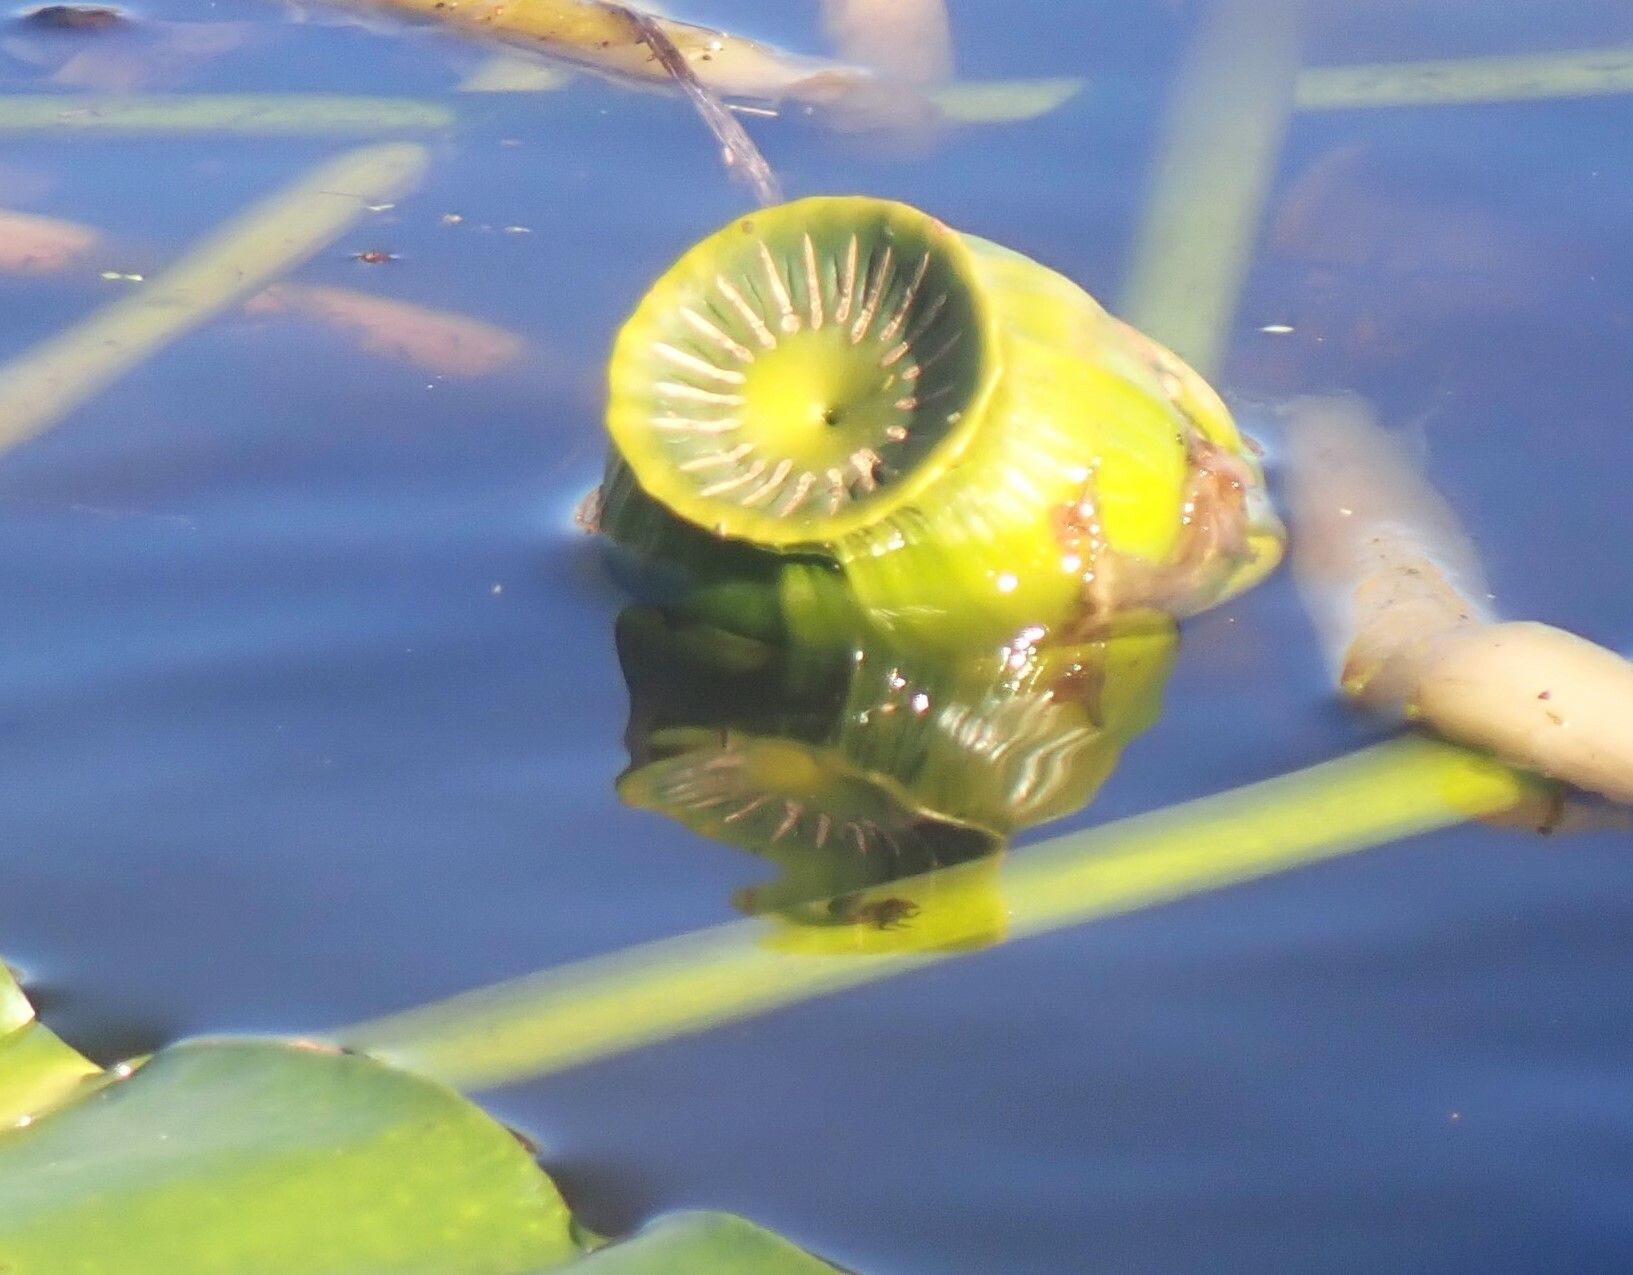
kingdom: Plantae
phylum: Tracheophyta
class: Magnoliopsida
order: Nymphaeales
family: Nymphaeaceae
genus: Nuphar
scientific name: Nuphar advena
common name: Spatter-dock
